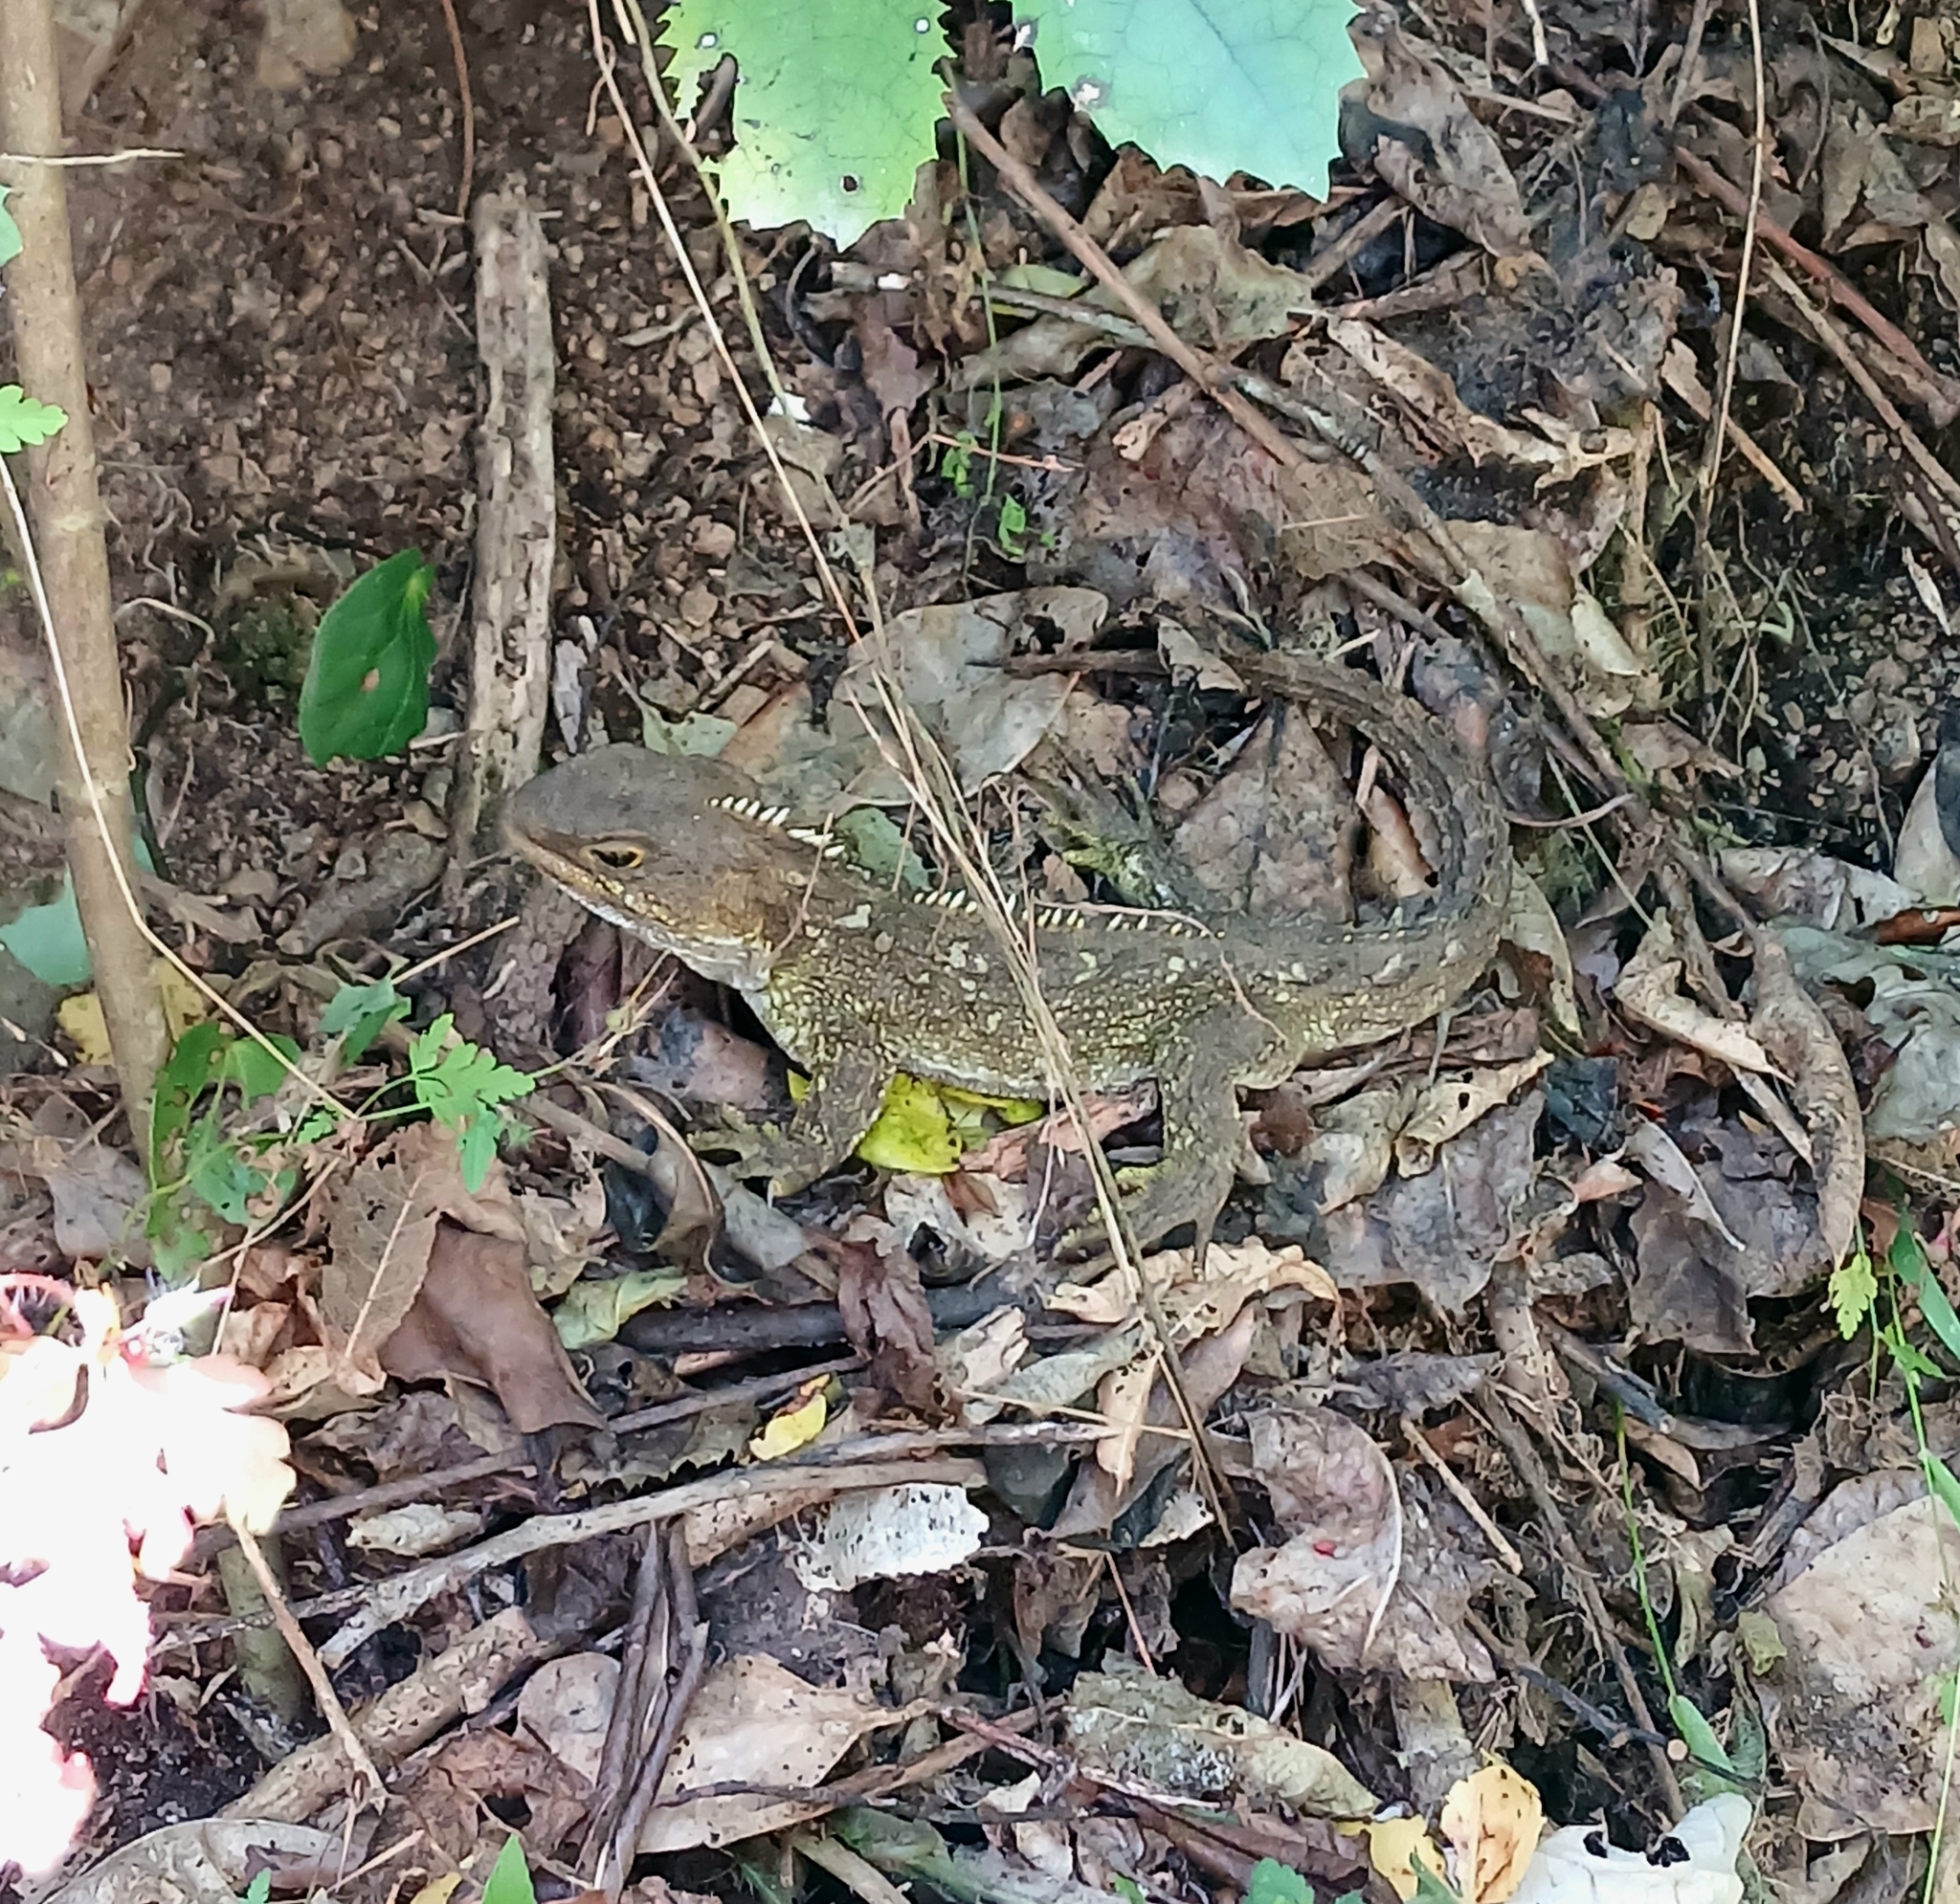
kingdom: Animalia
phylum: Chordata
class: Sphenodontia
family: Sphenodontidae
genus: Sphenodon
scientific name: Sphenodon punctatus
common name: Tuatara
